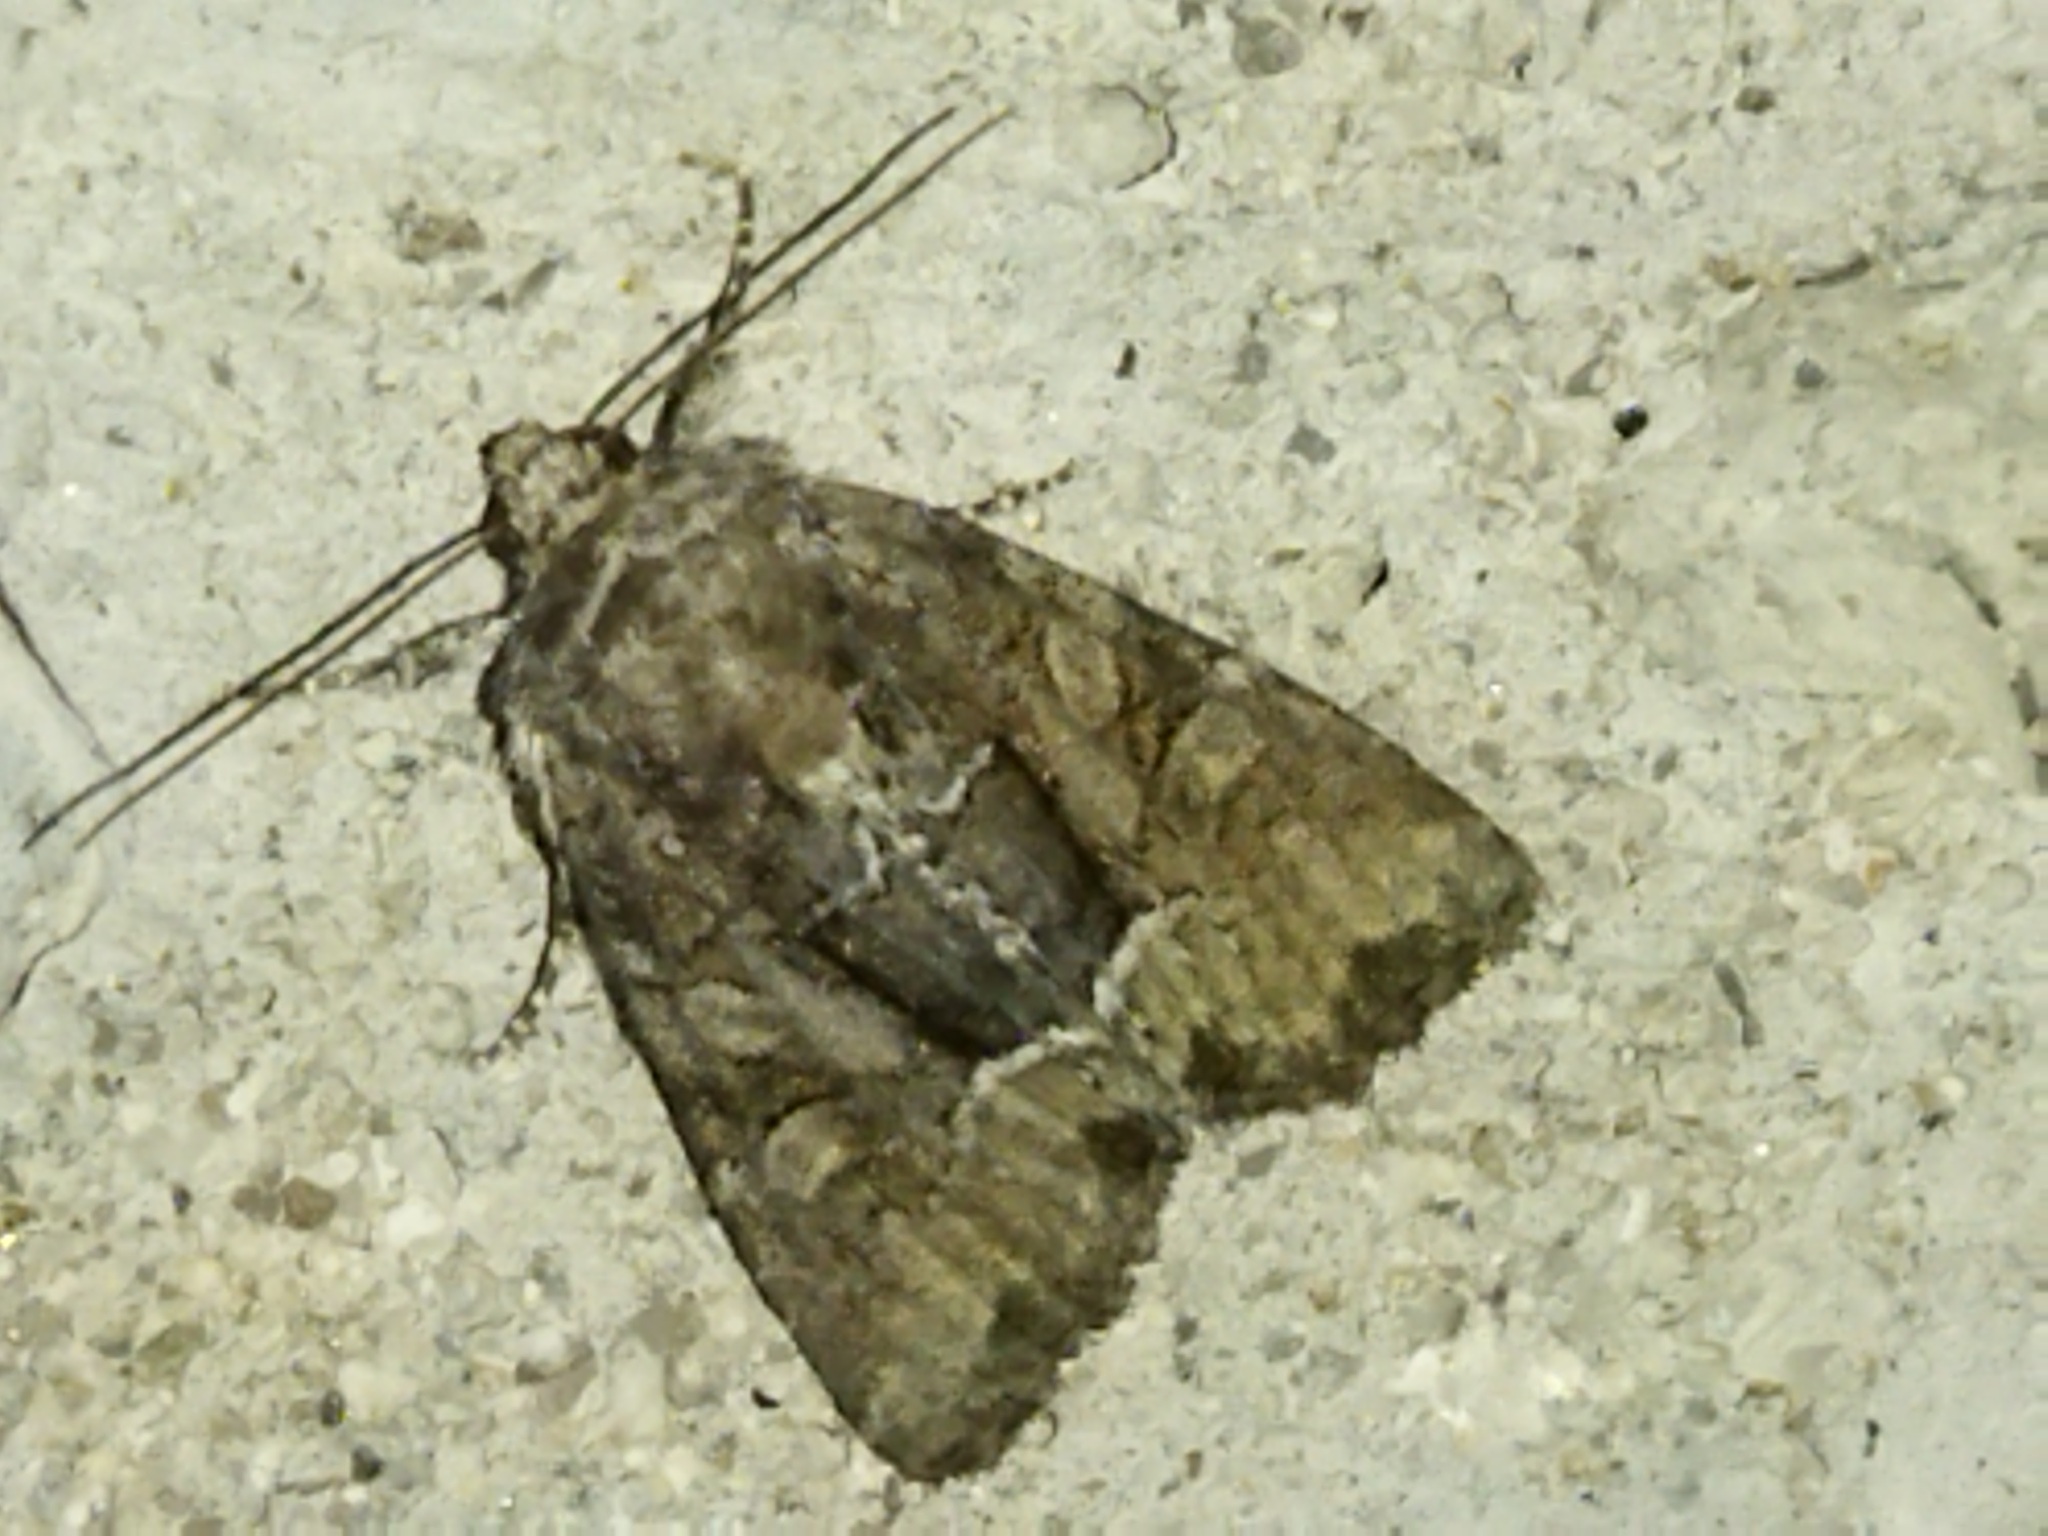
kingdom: Animalia
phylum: Arthropoda
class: Insecta
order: Lepidoptera
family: Noctuidae
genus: Thalpophila
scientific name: Thalpophila matura
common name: Straw underwing
